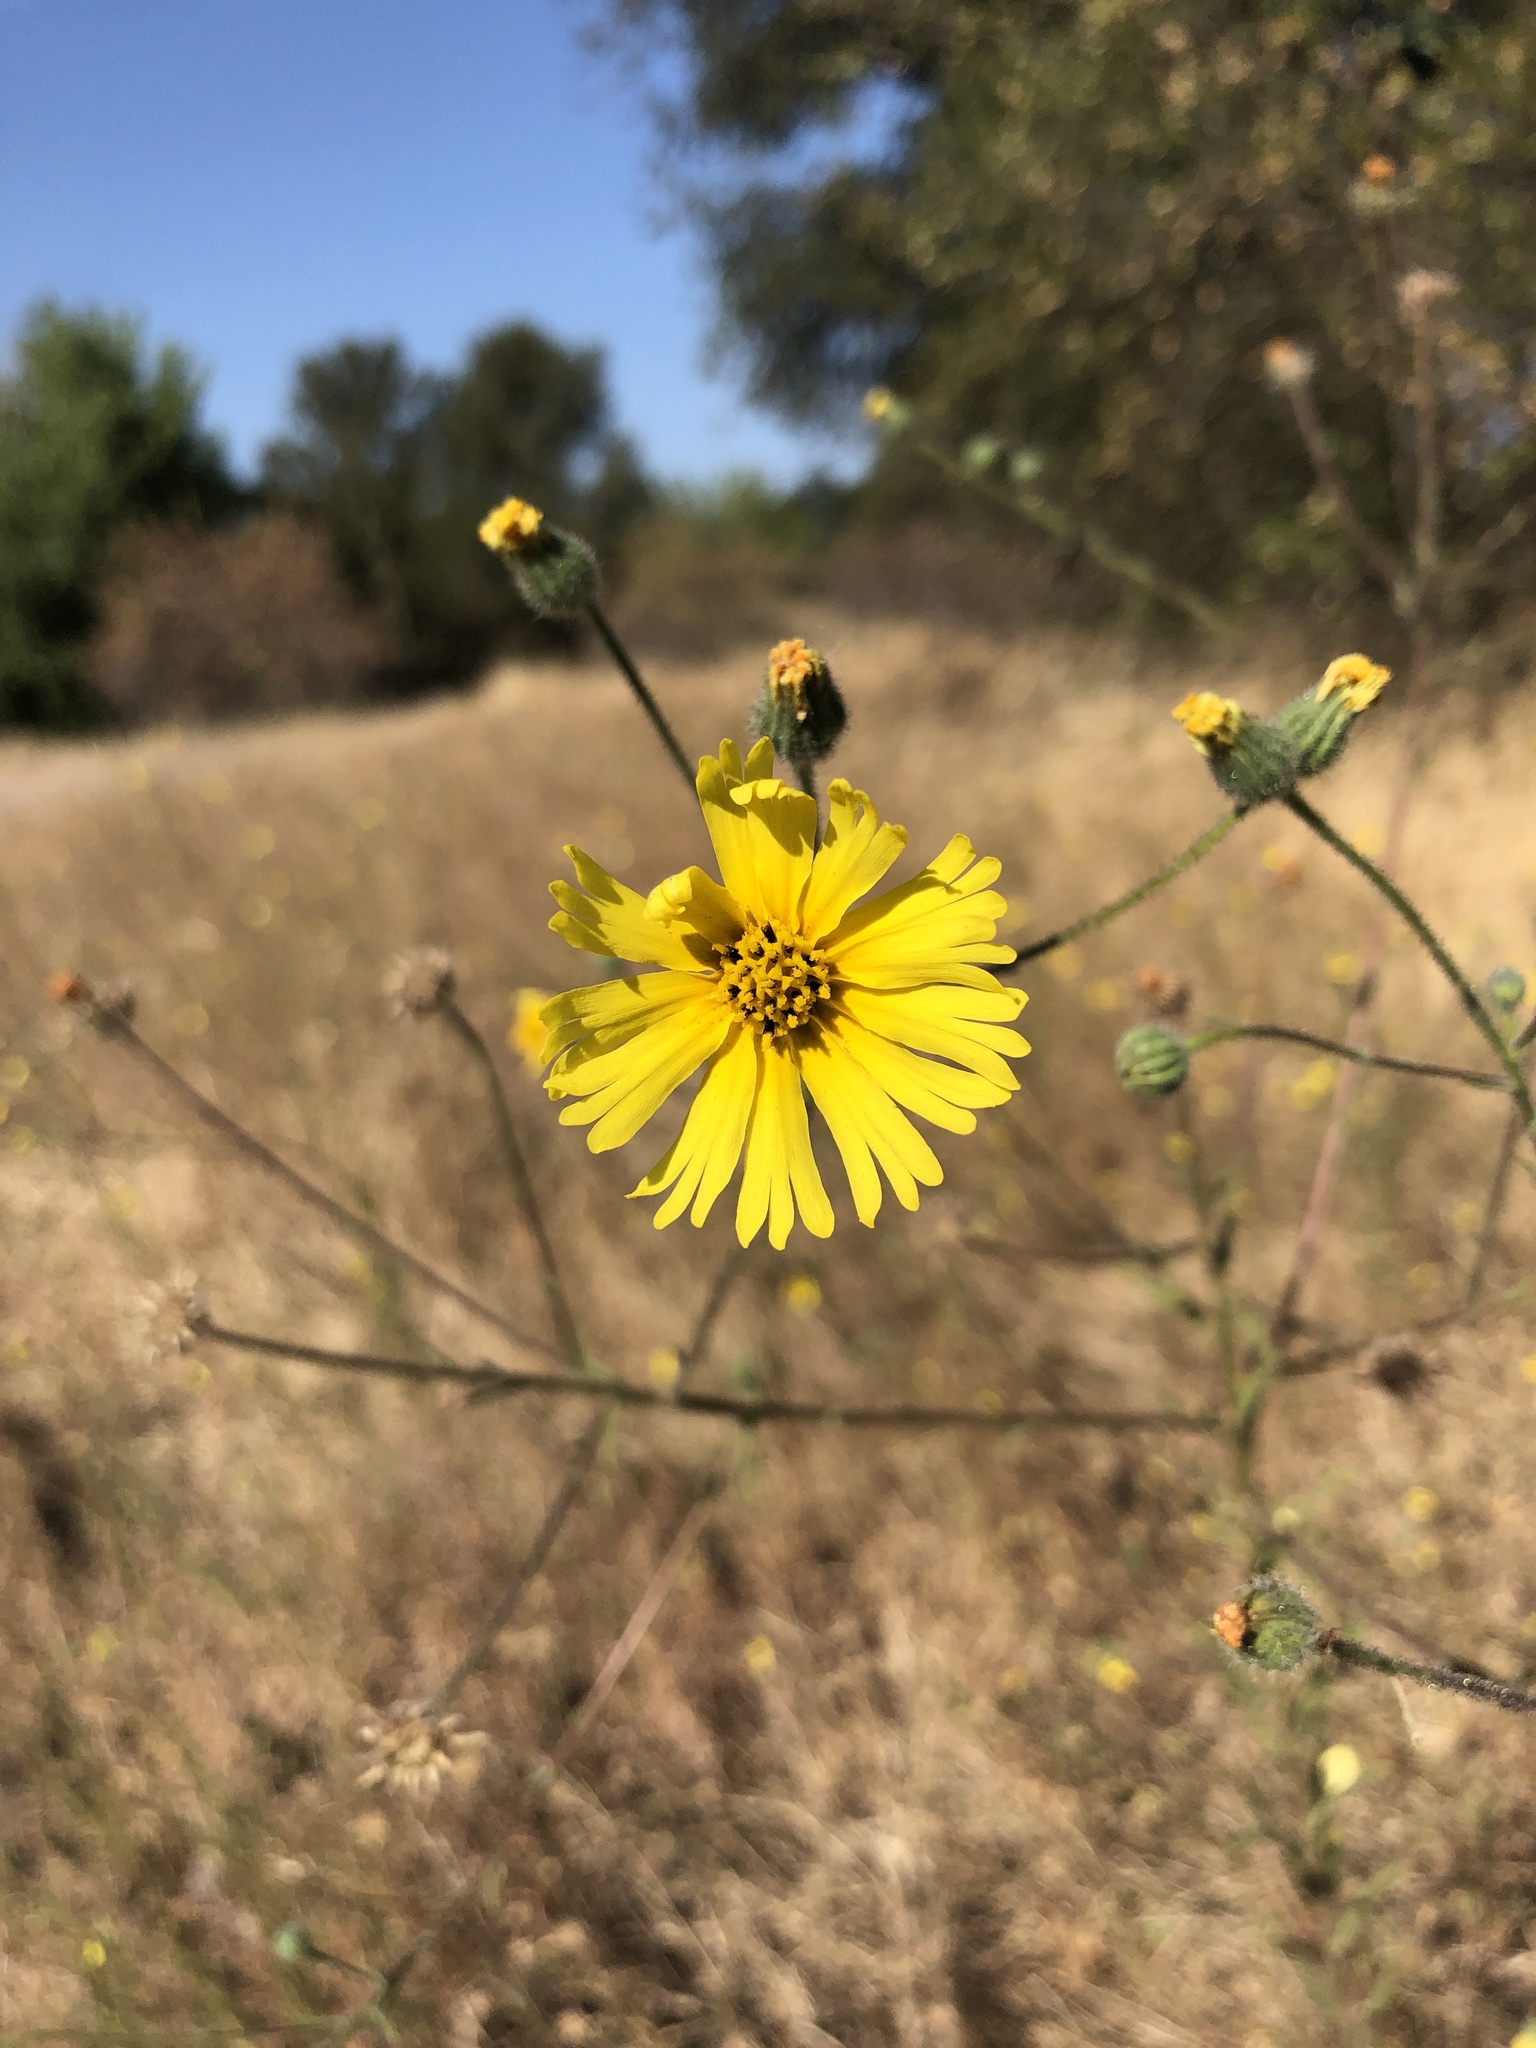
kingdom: Plantae
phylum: Tracheophyta
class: Magnoliopsida
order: Asterales
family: Asteraceae
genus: Madia
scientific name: Madia elegans
